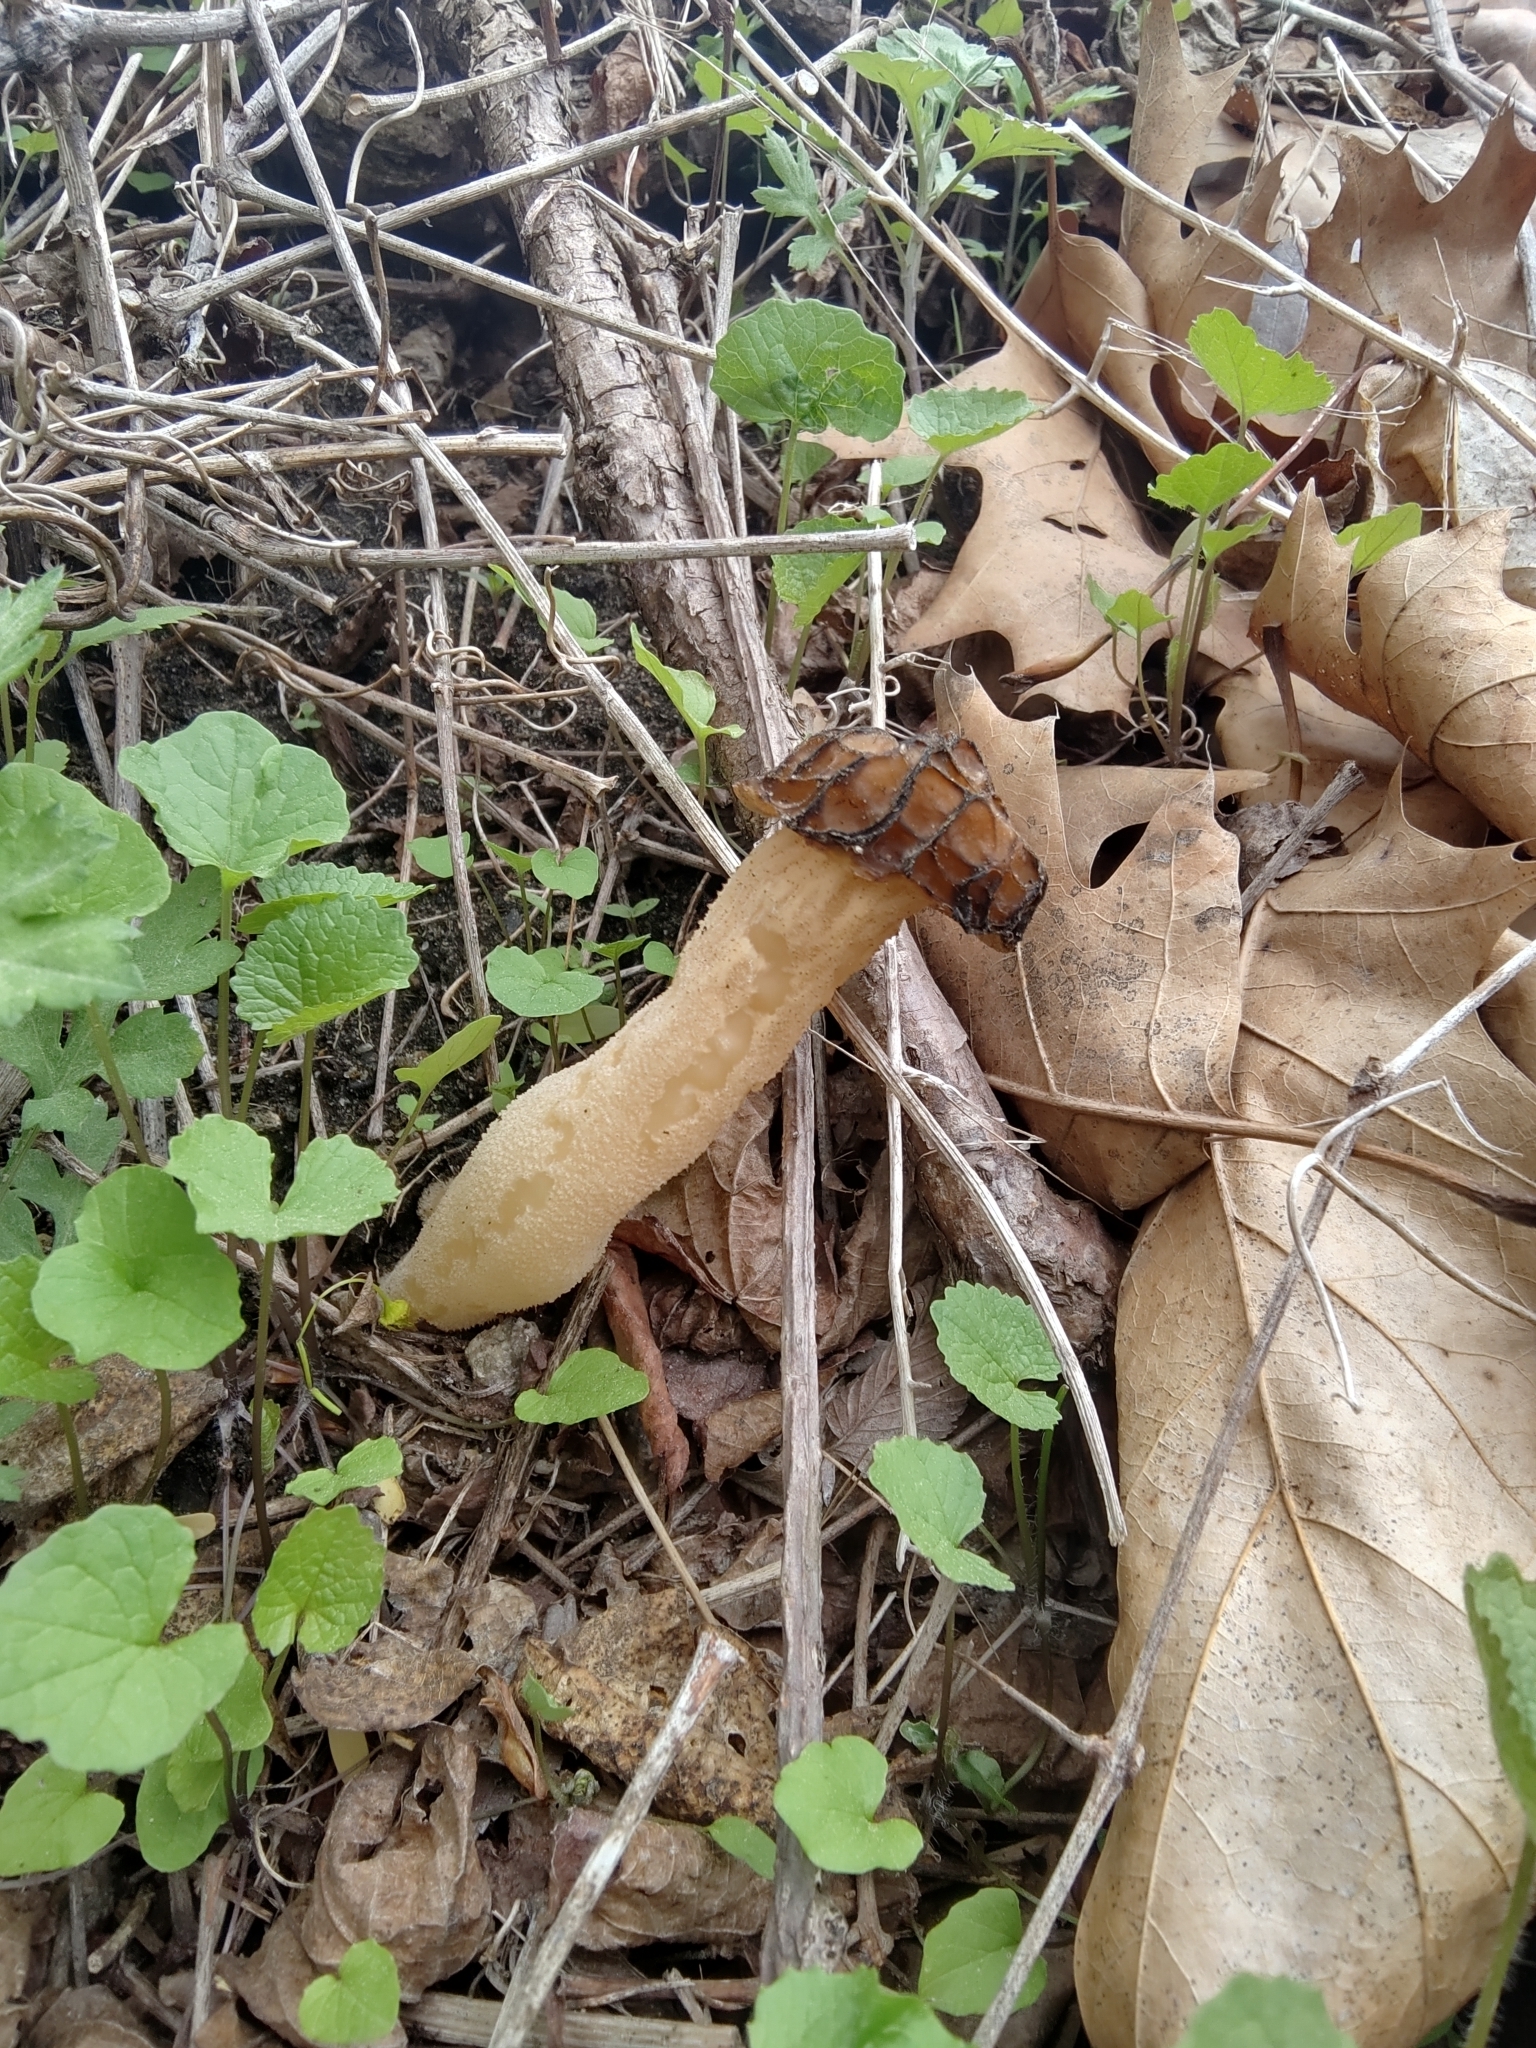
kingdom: Fungi
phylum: Ascomycota
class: Pezizomycetes
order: Pezizales
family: Morchellaceae
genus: Morchella
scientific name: Morchella punctipes
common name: Half-free morel
